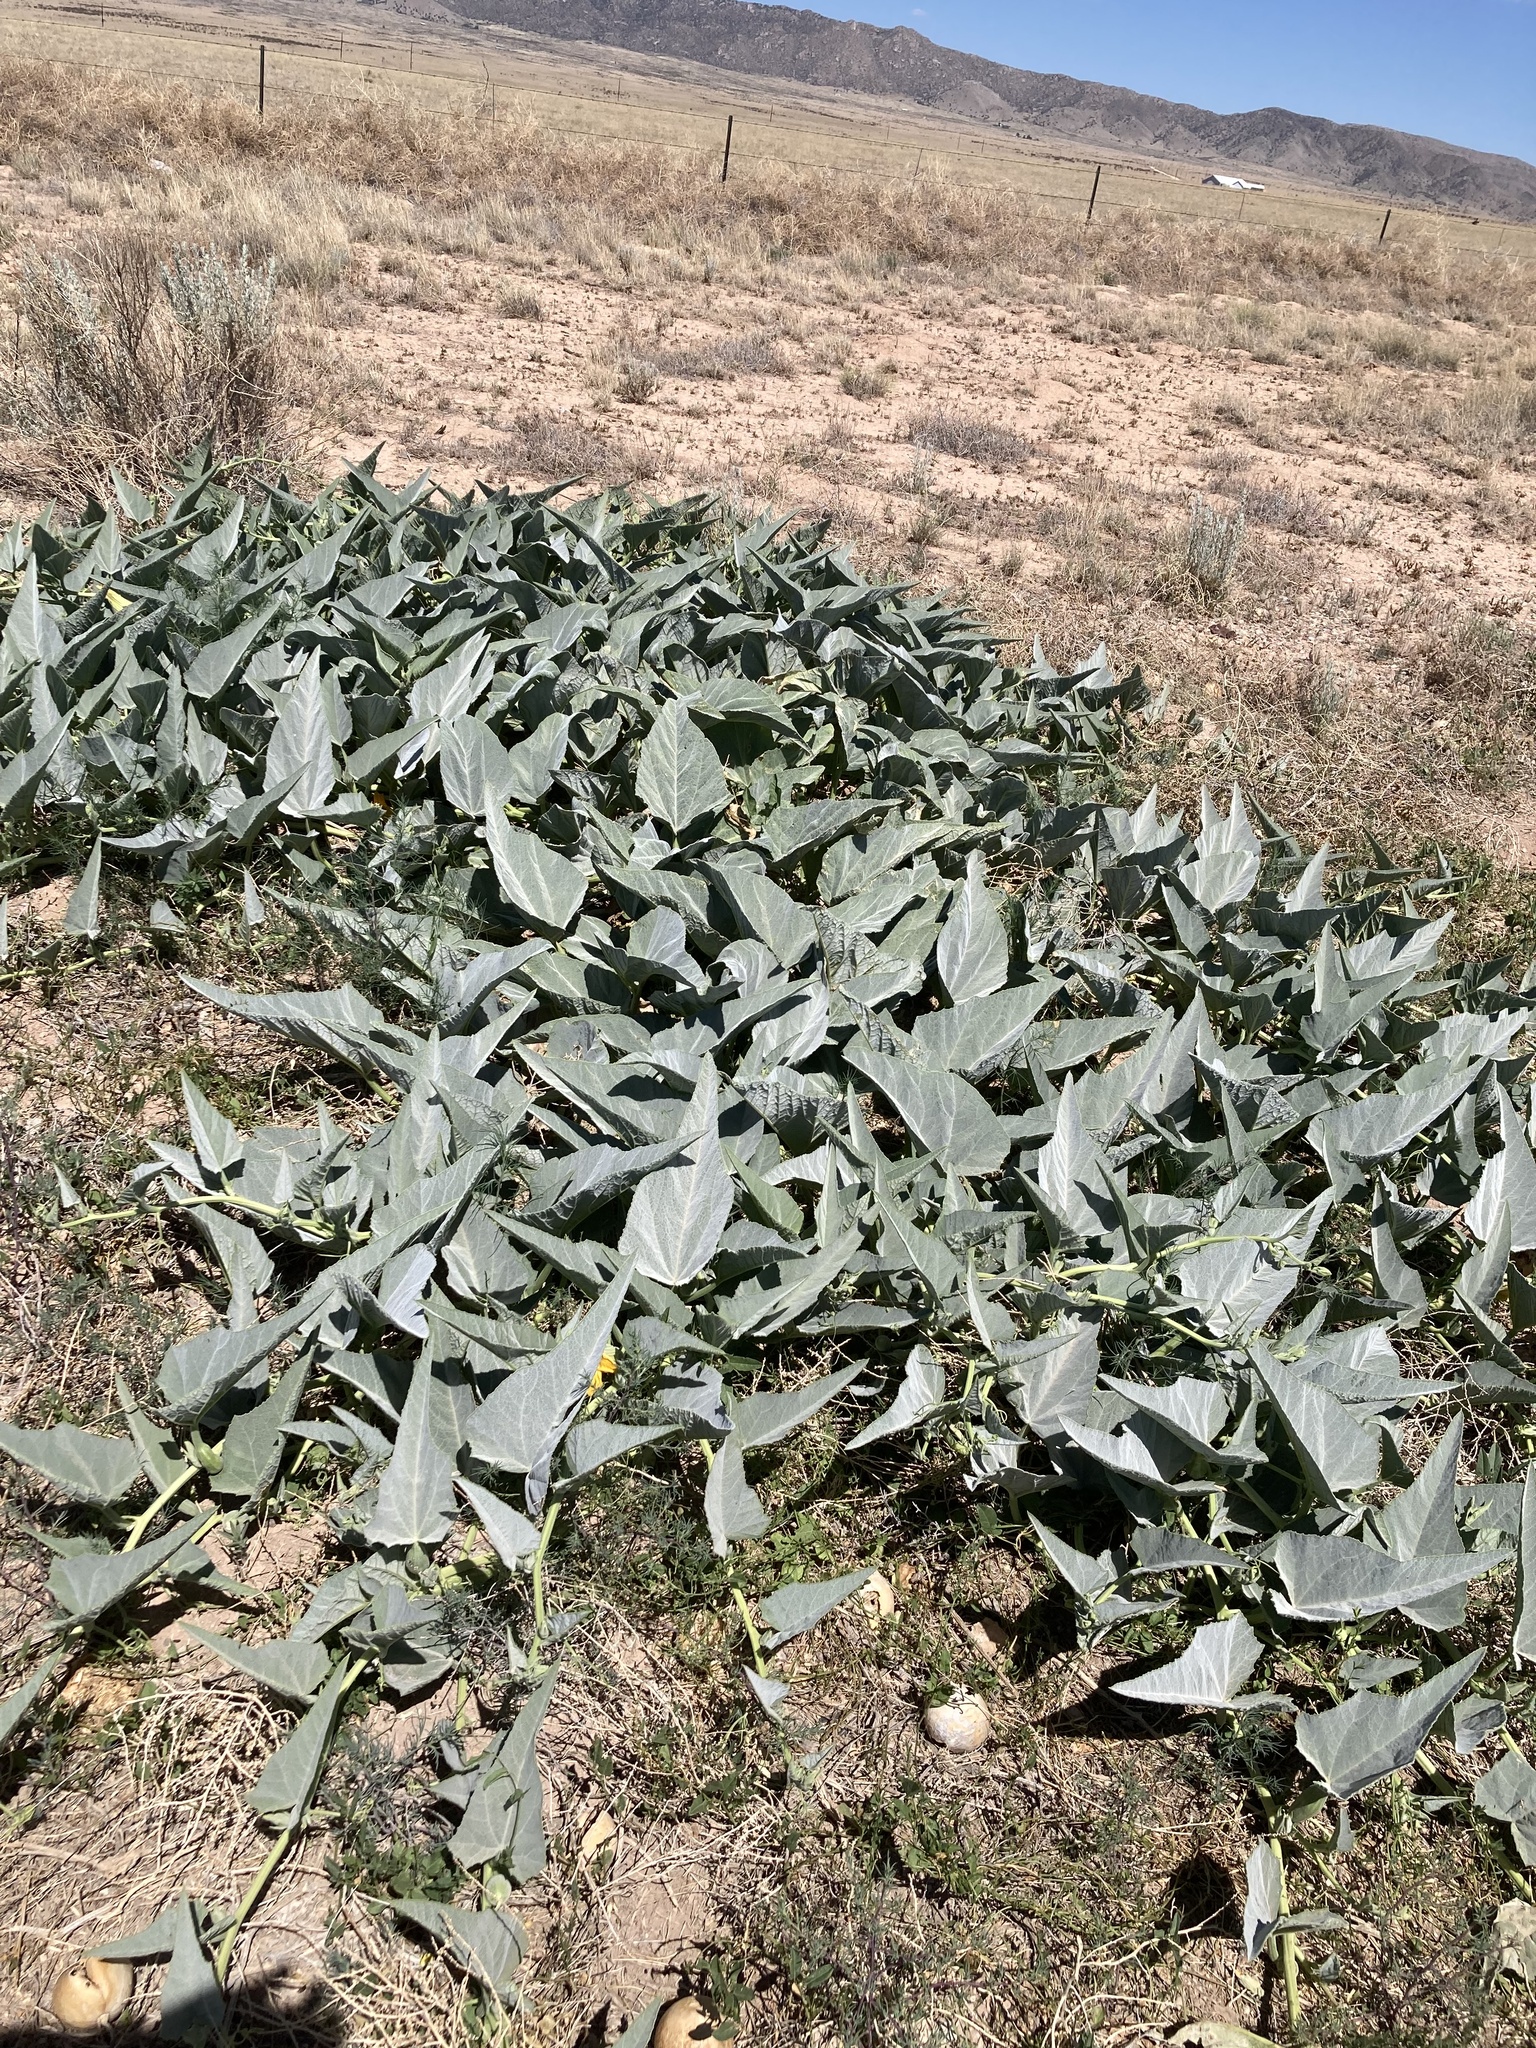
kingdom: Plantae
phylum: Tracheophyta
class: Magnoliopsida
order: Cucurbitales
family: Cucurbitaceae
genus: Cucurbita
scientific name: Cucurbita foetidissima
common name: Buffalo gourd
